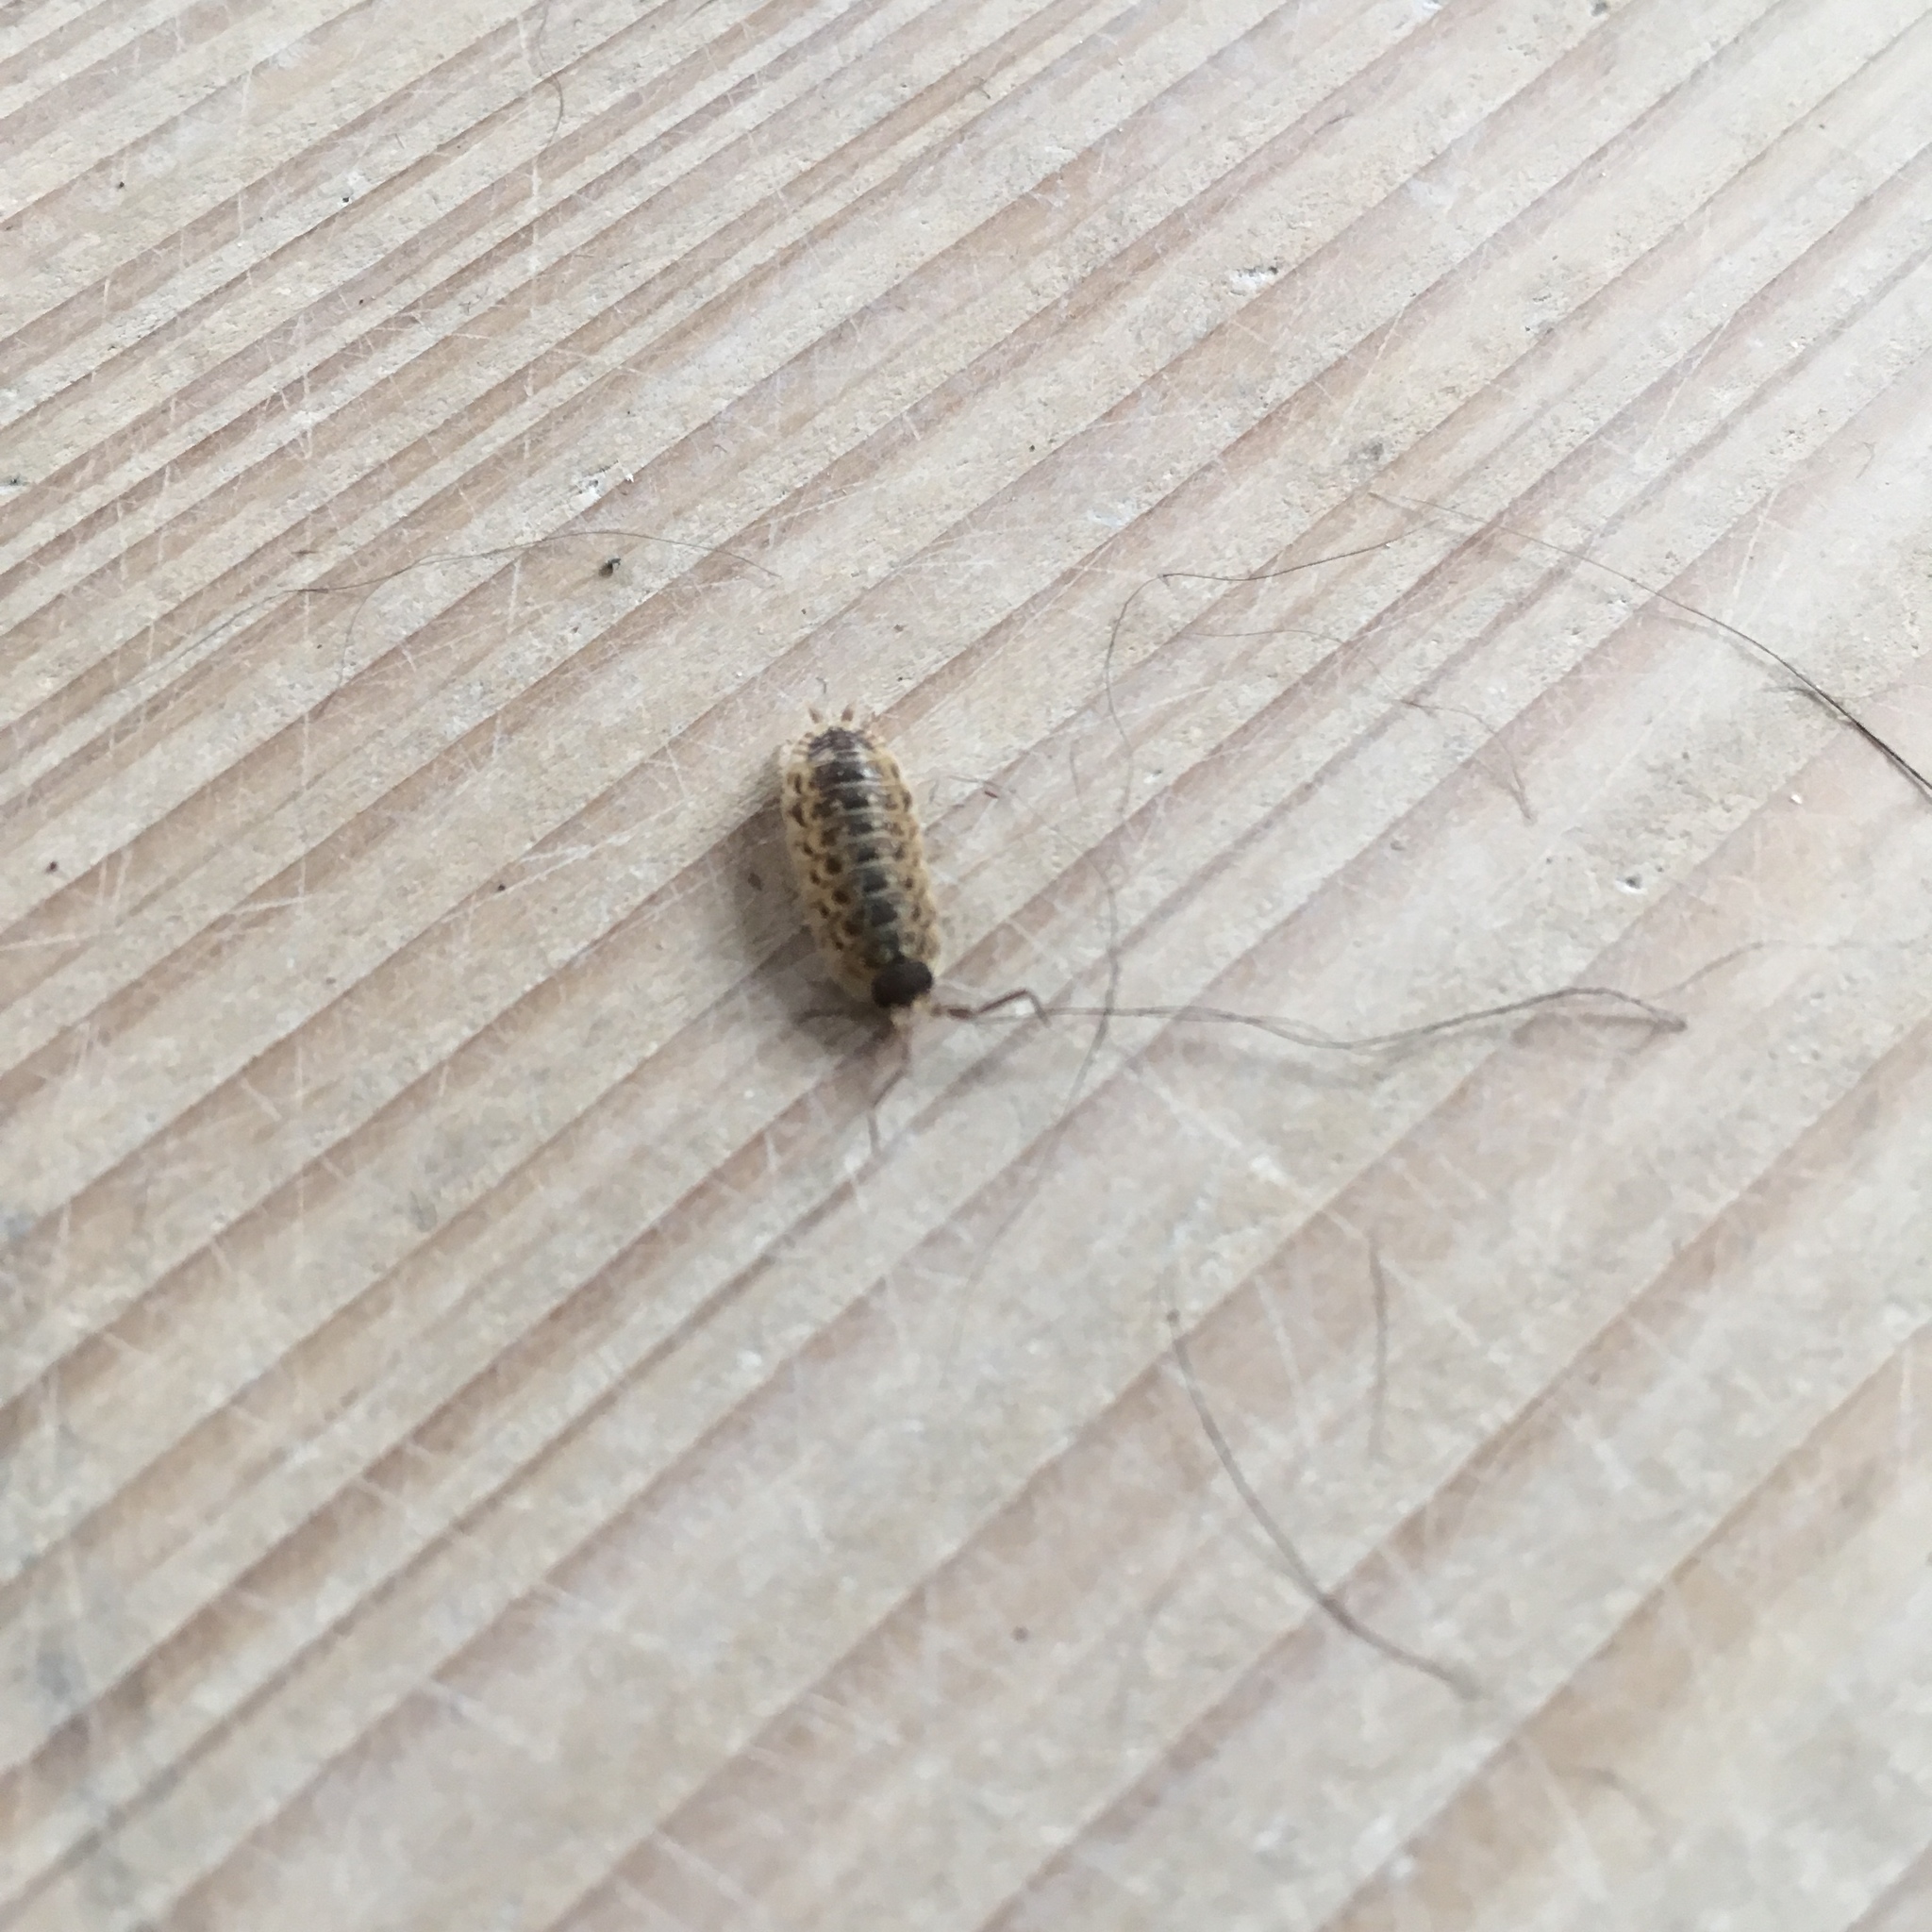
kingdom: Animalia
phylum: Arthropoda
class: Malacostraca
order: Isopoda
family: Porcellionidae
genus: Porcellio
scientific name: Porcellio spinicornis
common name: Painted woodlouse
